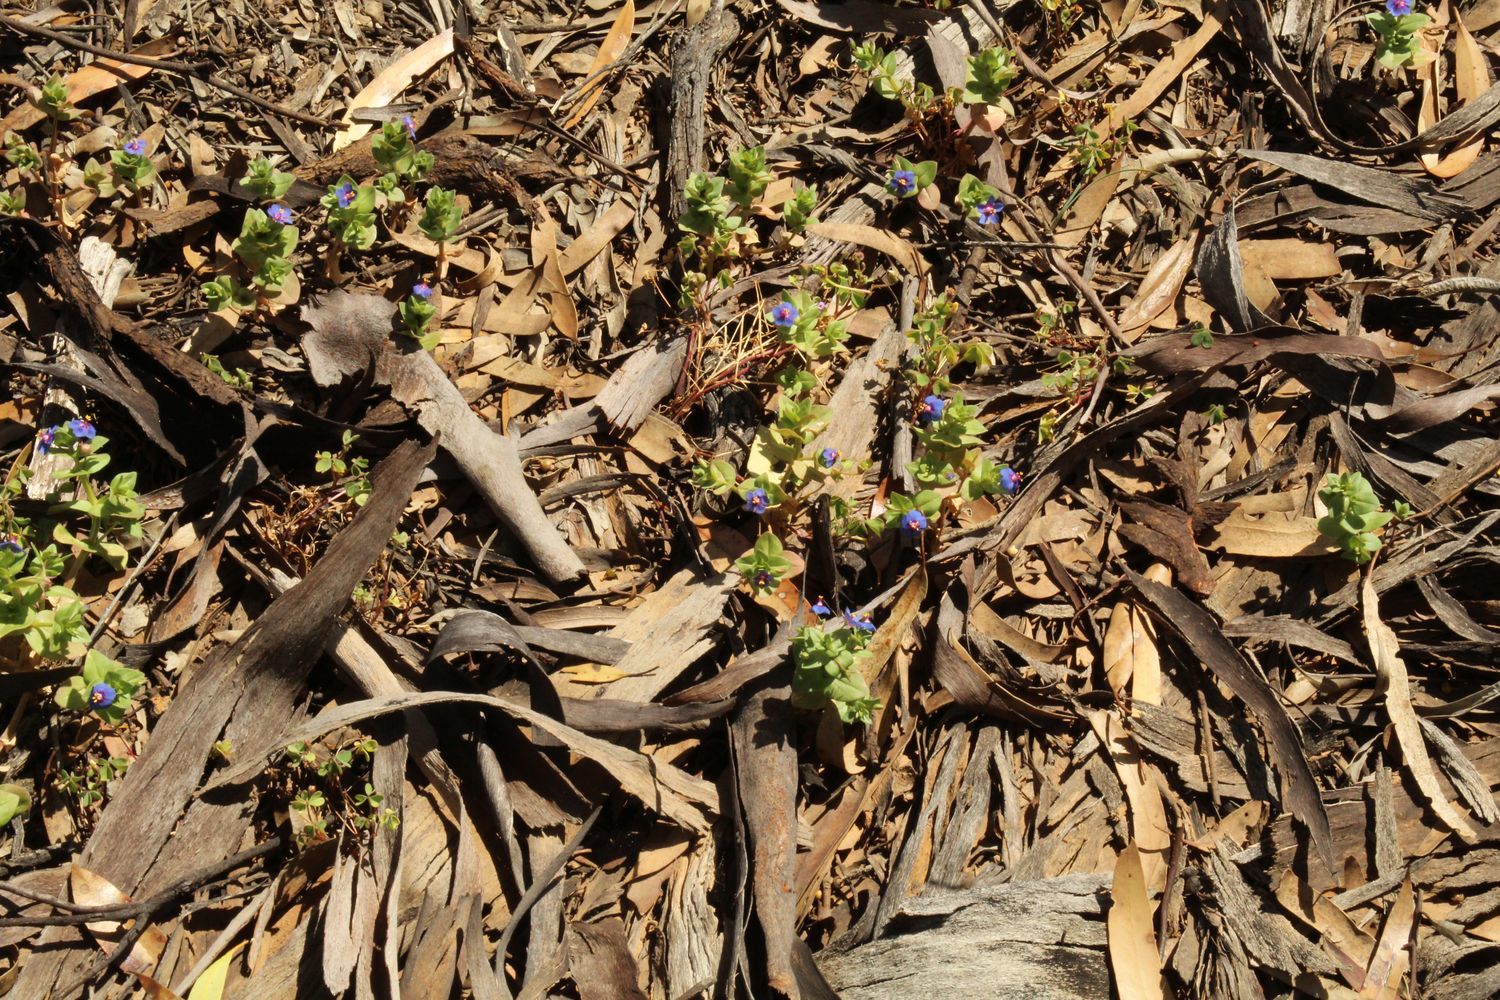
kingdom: Plantae
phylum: Tracheophyta
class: Magnoliopsida
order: Ericales
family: Primulaceae
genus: Lysimachia
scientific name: Lysimachia loeflingii
